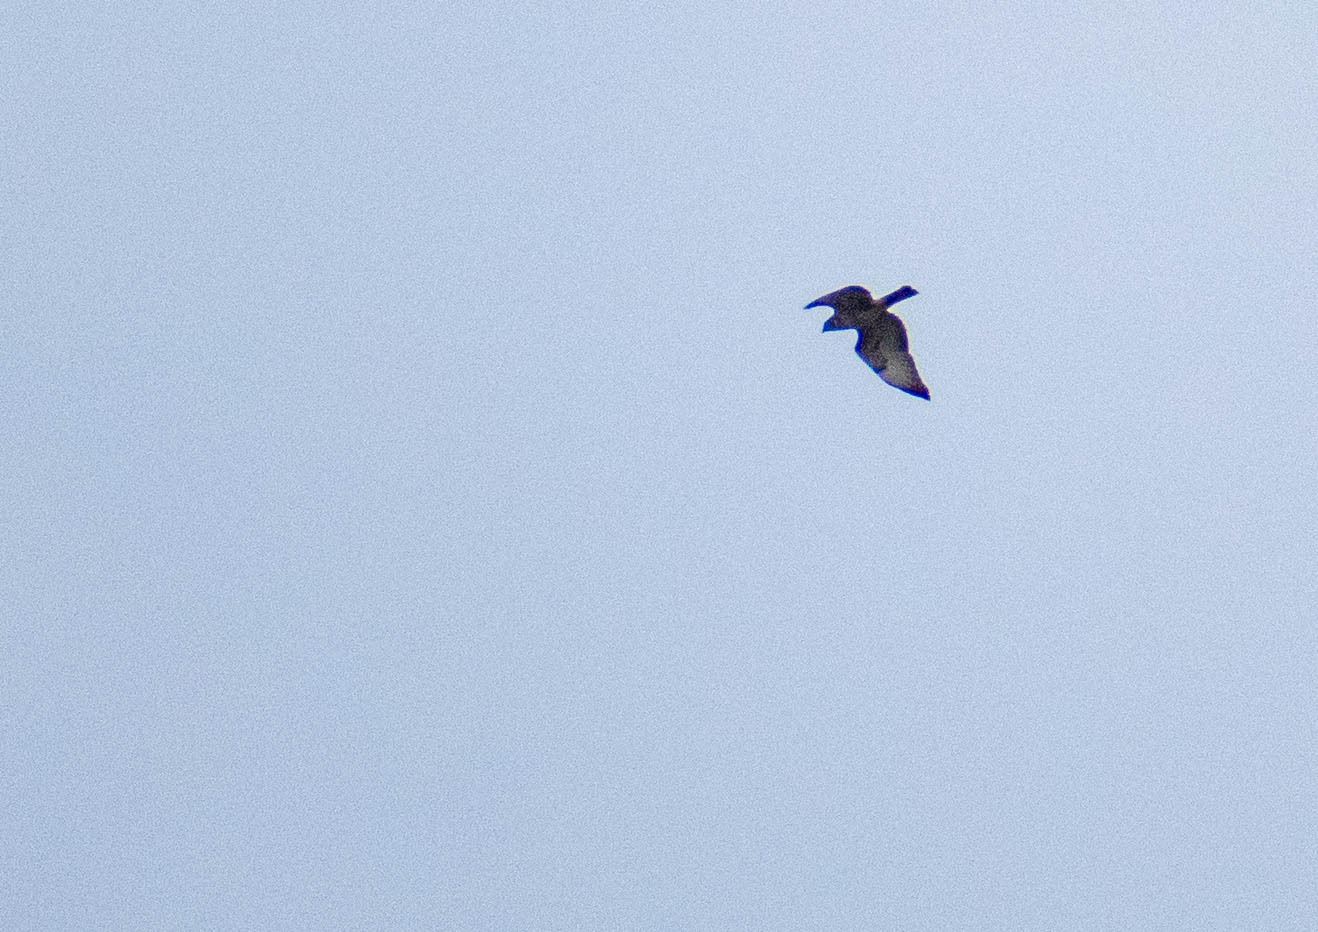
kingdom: Animalia
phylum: Chordata
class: Aves
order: Accipitriformes
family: Accipitridae
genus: Buteo
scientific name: Buteo buteo
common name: Common buzzard
